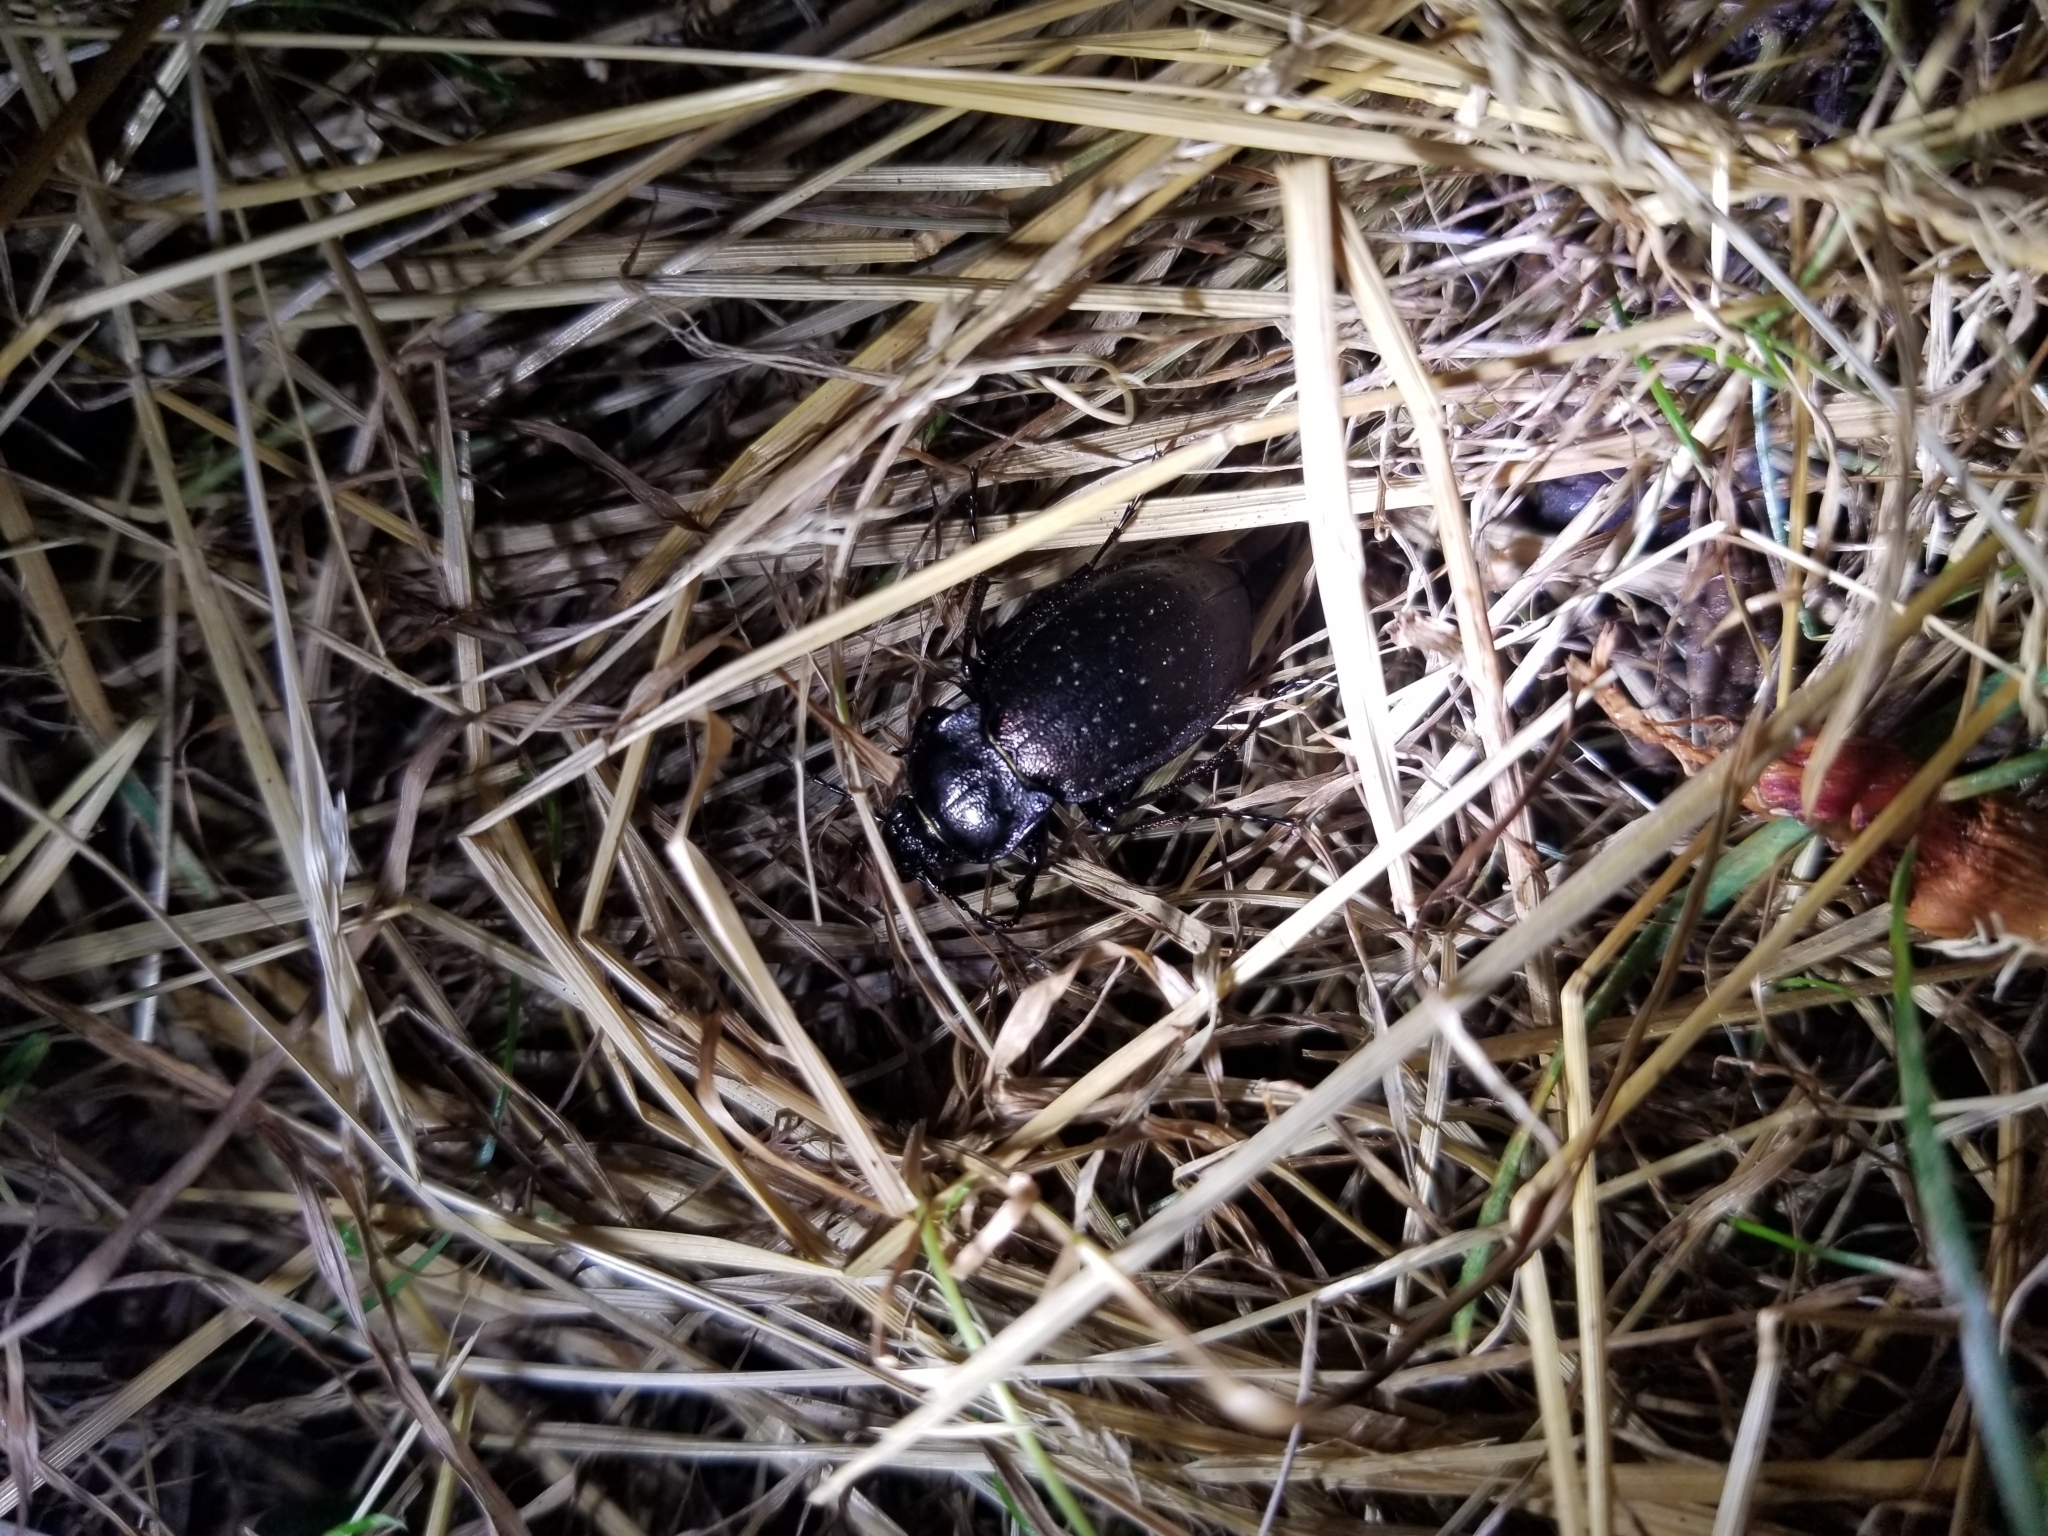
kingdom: Animalia
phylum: Arthropoda
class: Insecta
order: Coleoptera
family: Carabidae
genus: Carabus
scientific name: Carabus nemoralis
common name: European ground beetle
